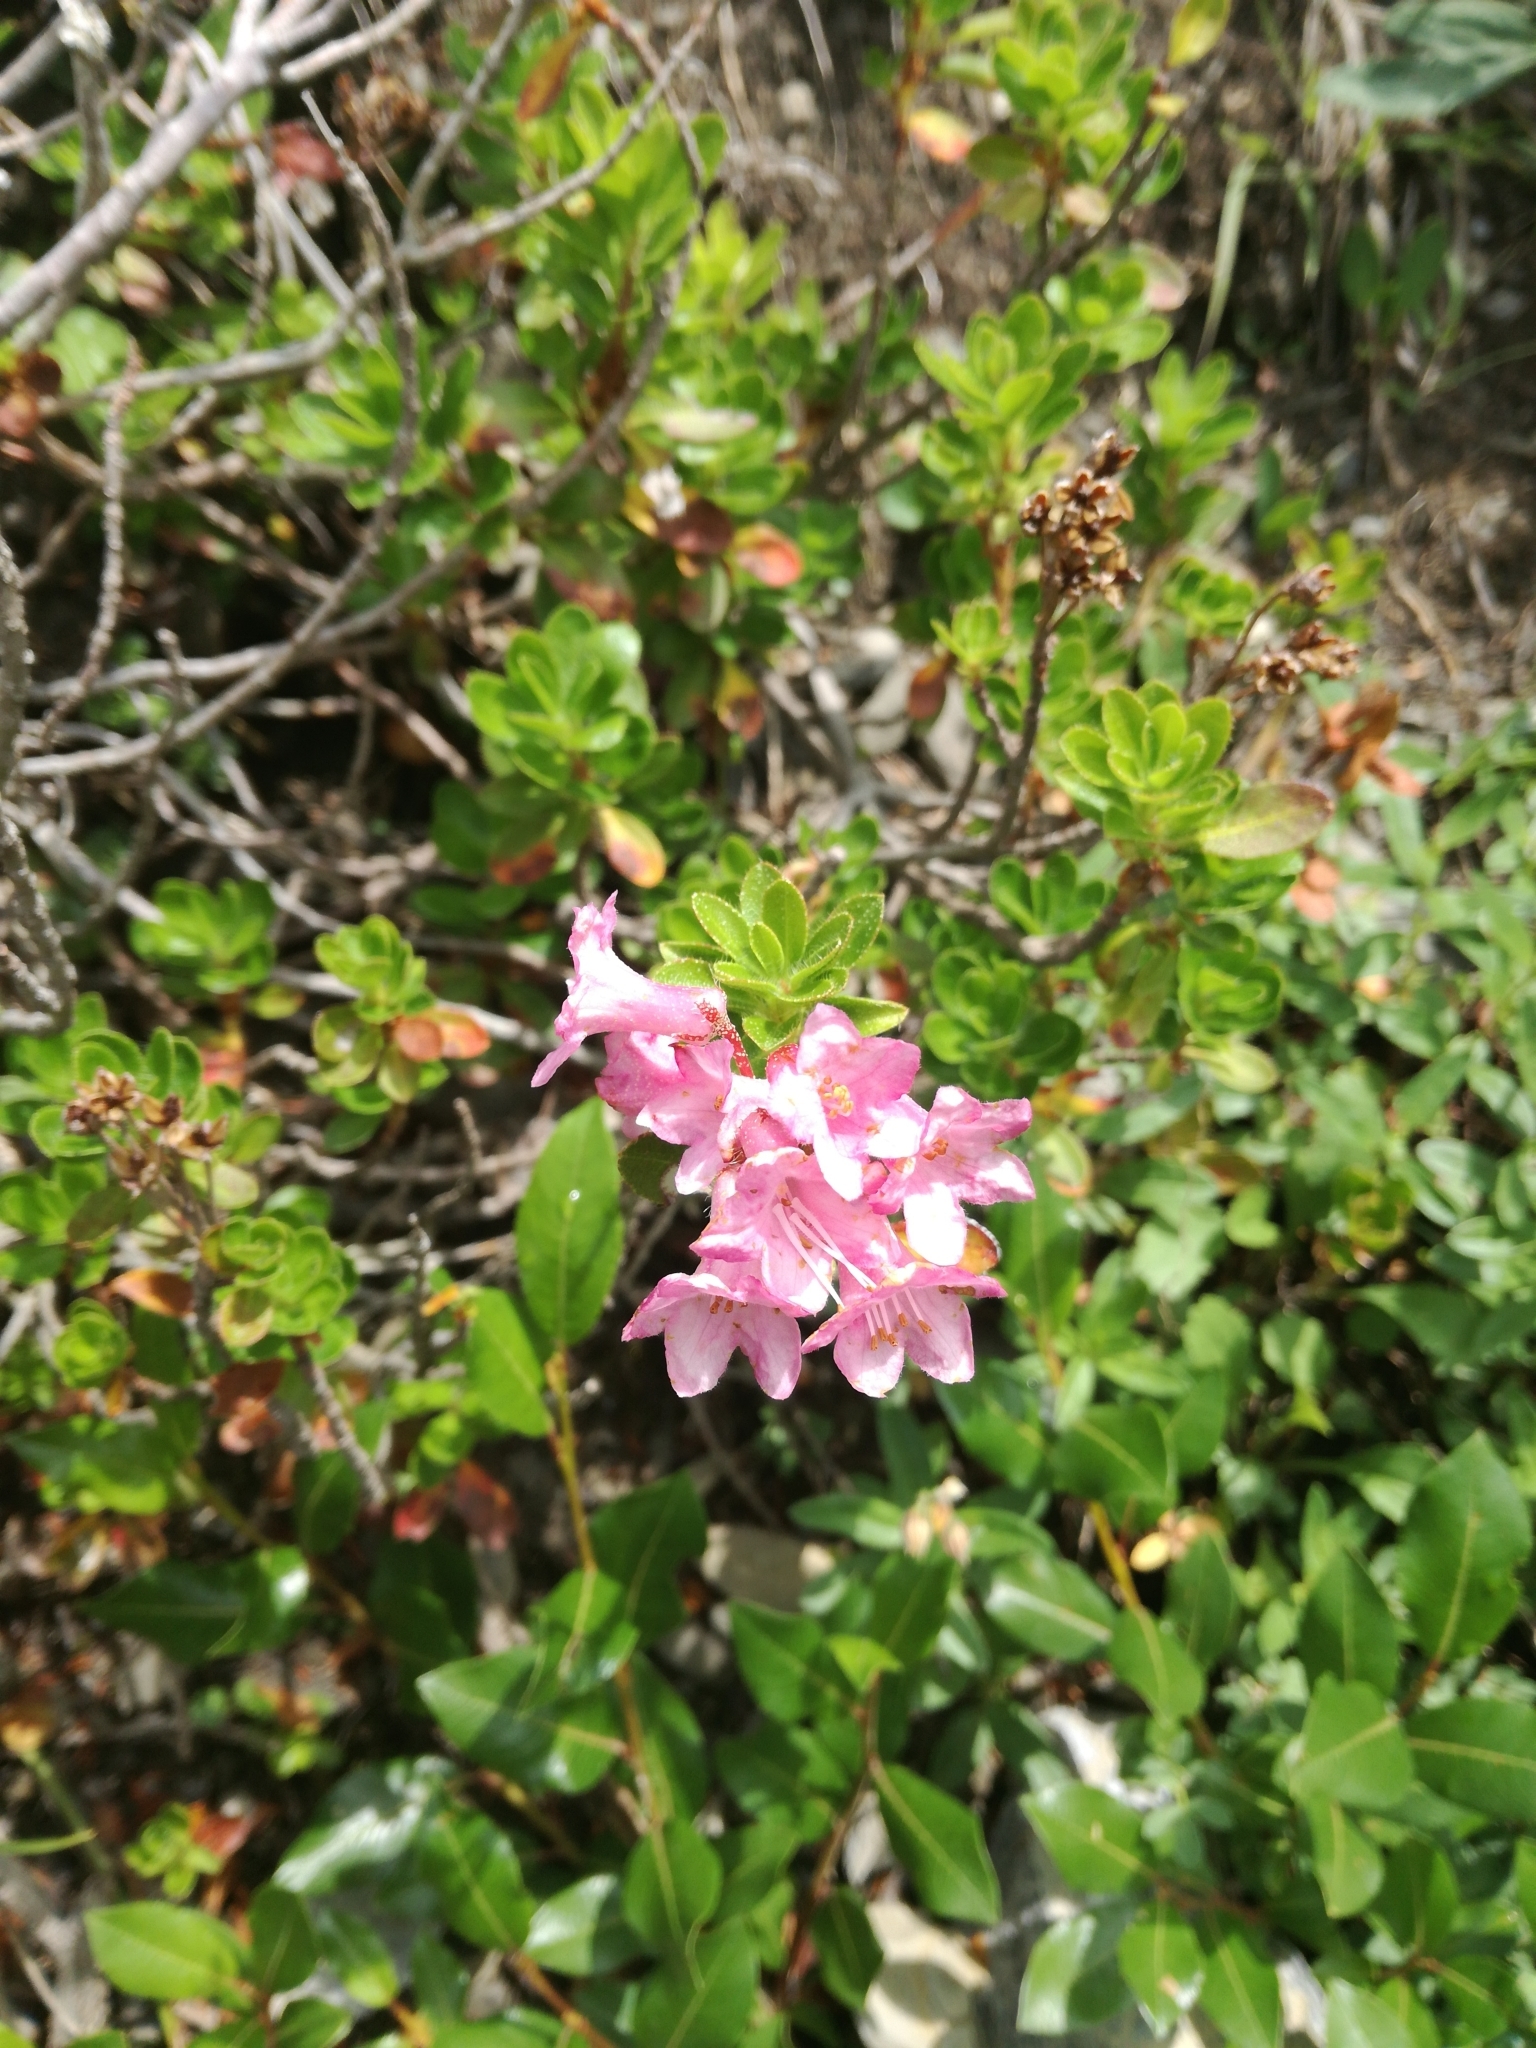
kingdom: Plantae
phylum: Tracheophyta
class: Magnoliopsida
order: Ericales
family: Ericaceae
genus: Rhododendron
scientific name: Rhododendron hirsutum
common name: Hairy alpenrose
